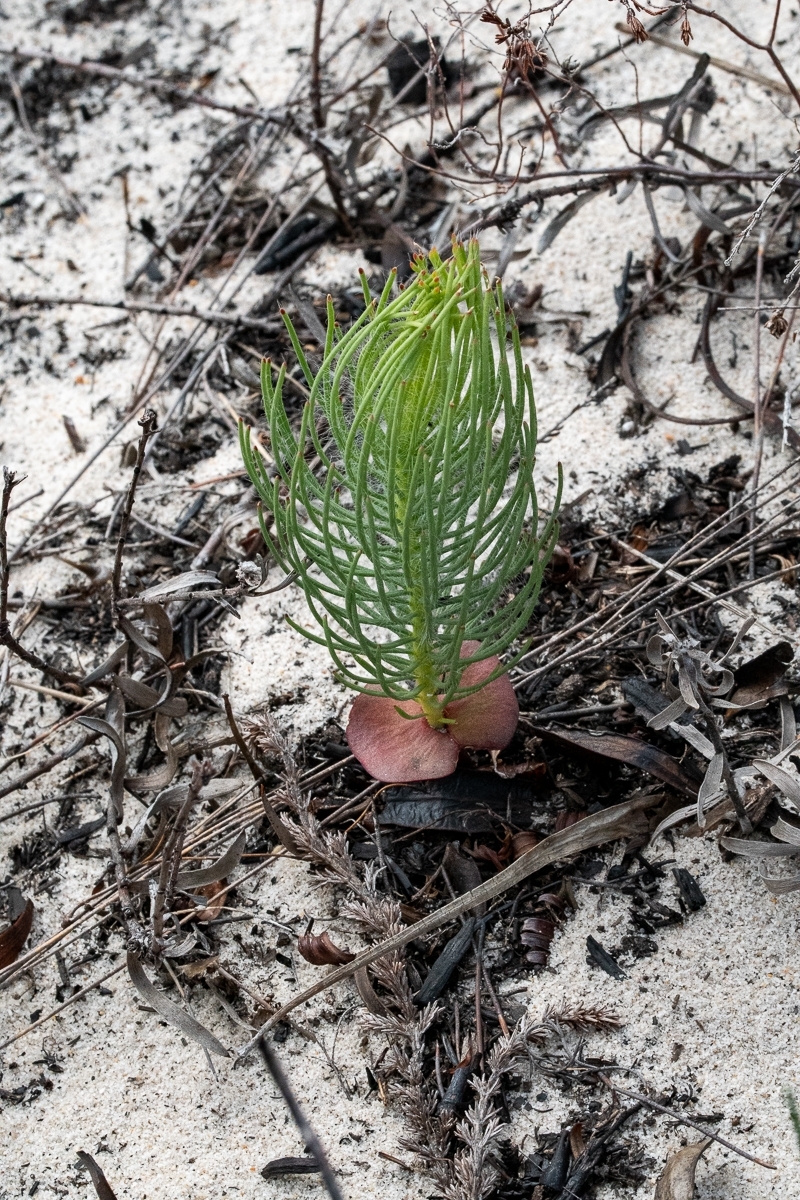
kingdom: Plantae
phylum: Tracheophyta
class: Magnoliopsida
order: Proteales
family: Proteaceae
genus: Leucadendron
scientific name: Leucadendron platyspermum
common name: Plate-seed conebush
